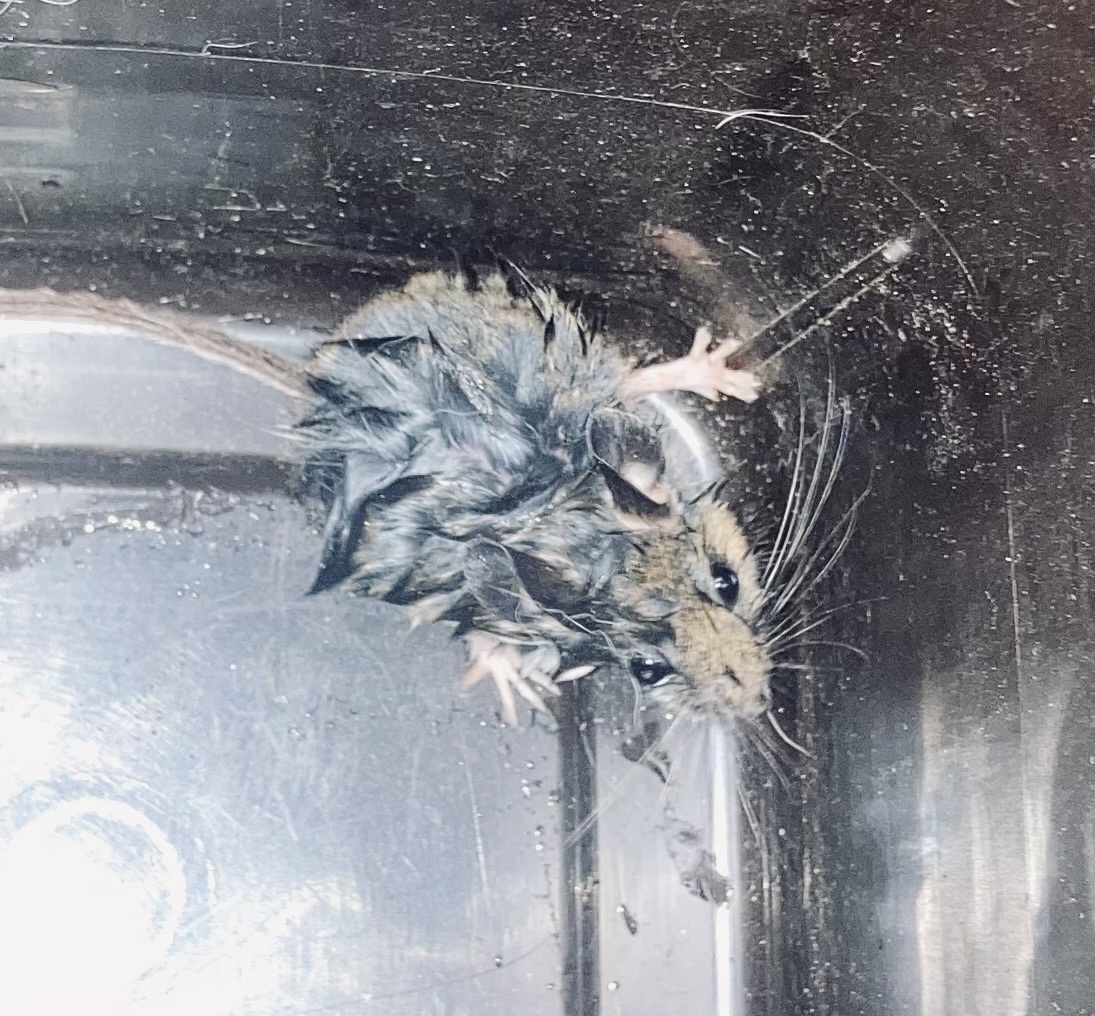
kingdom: Animalia
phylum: Chordata
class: Mammalia
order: Rodentia
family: Muridae
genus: Mus
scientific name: Mus musculus
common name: House mouse
